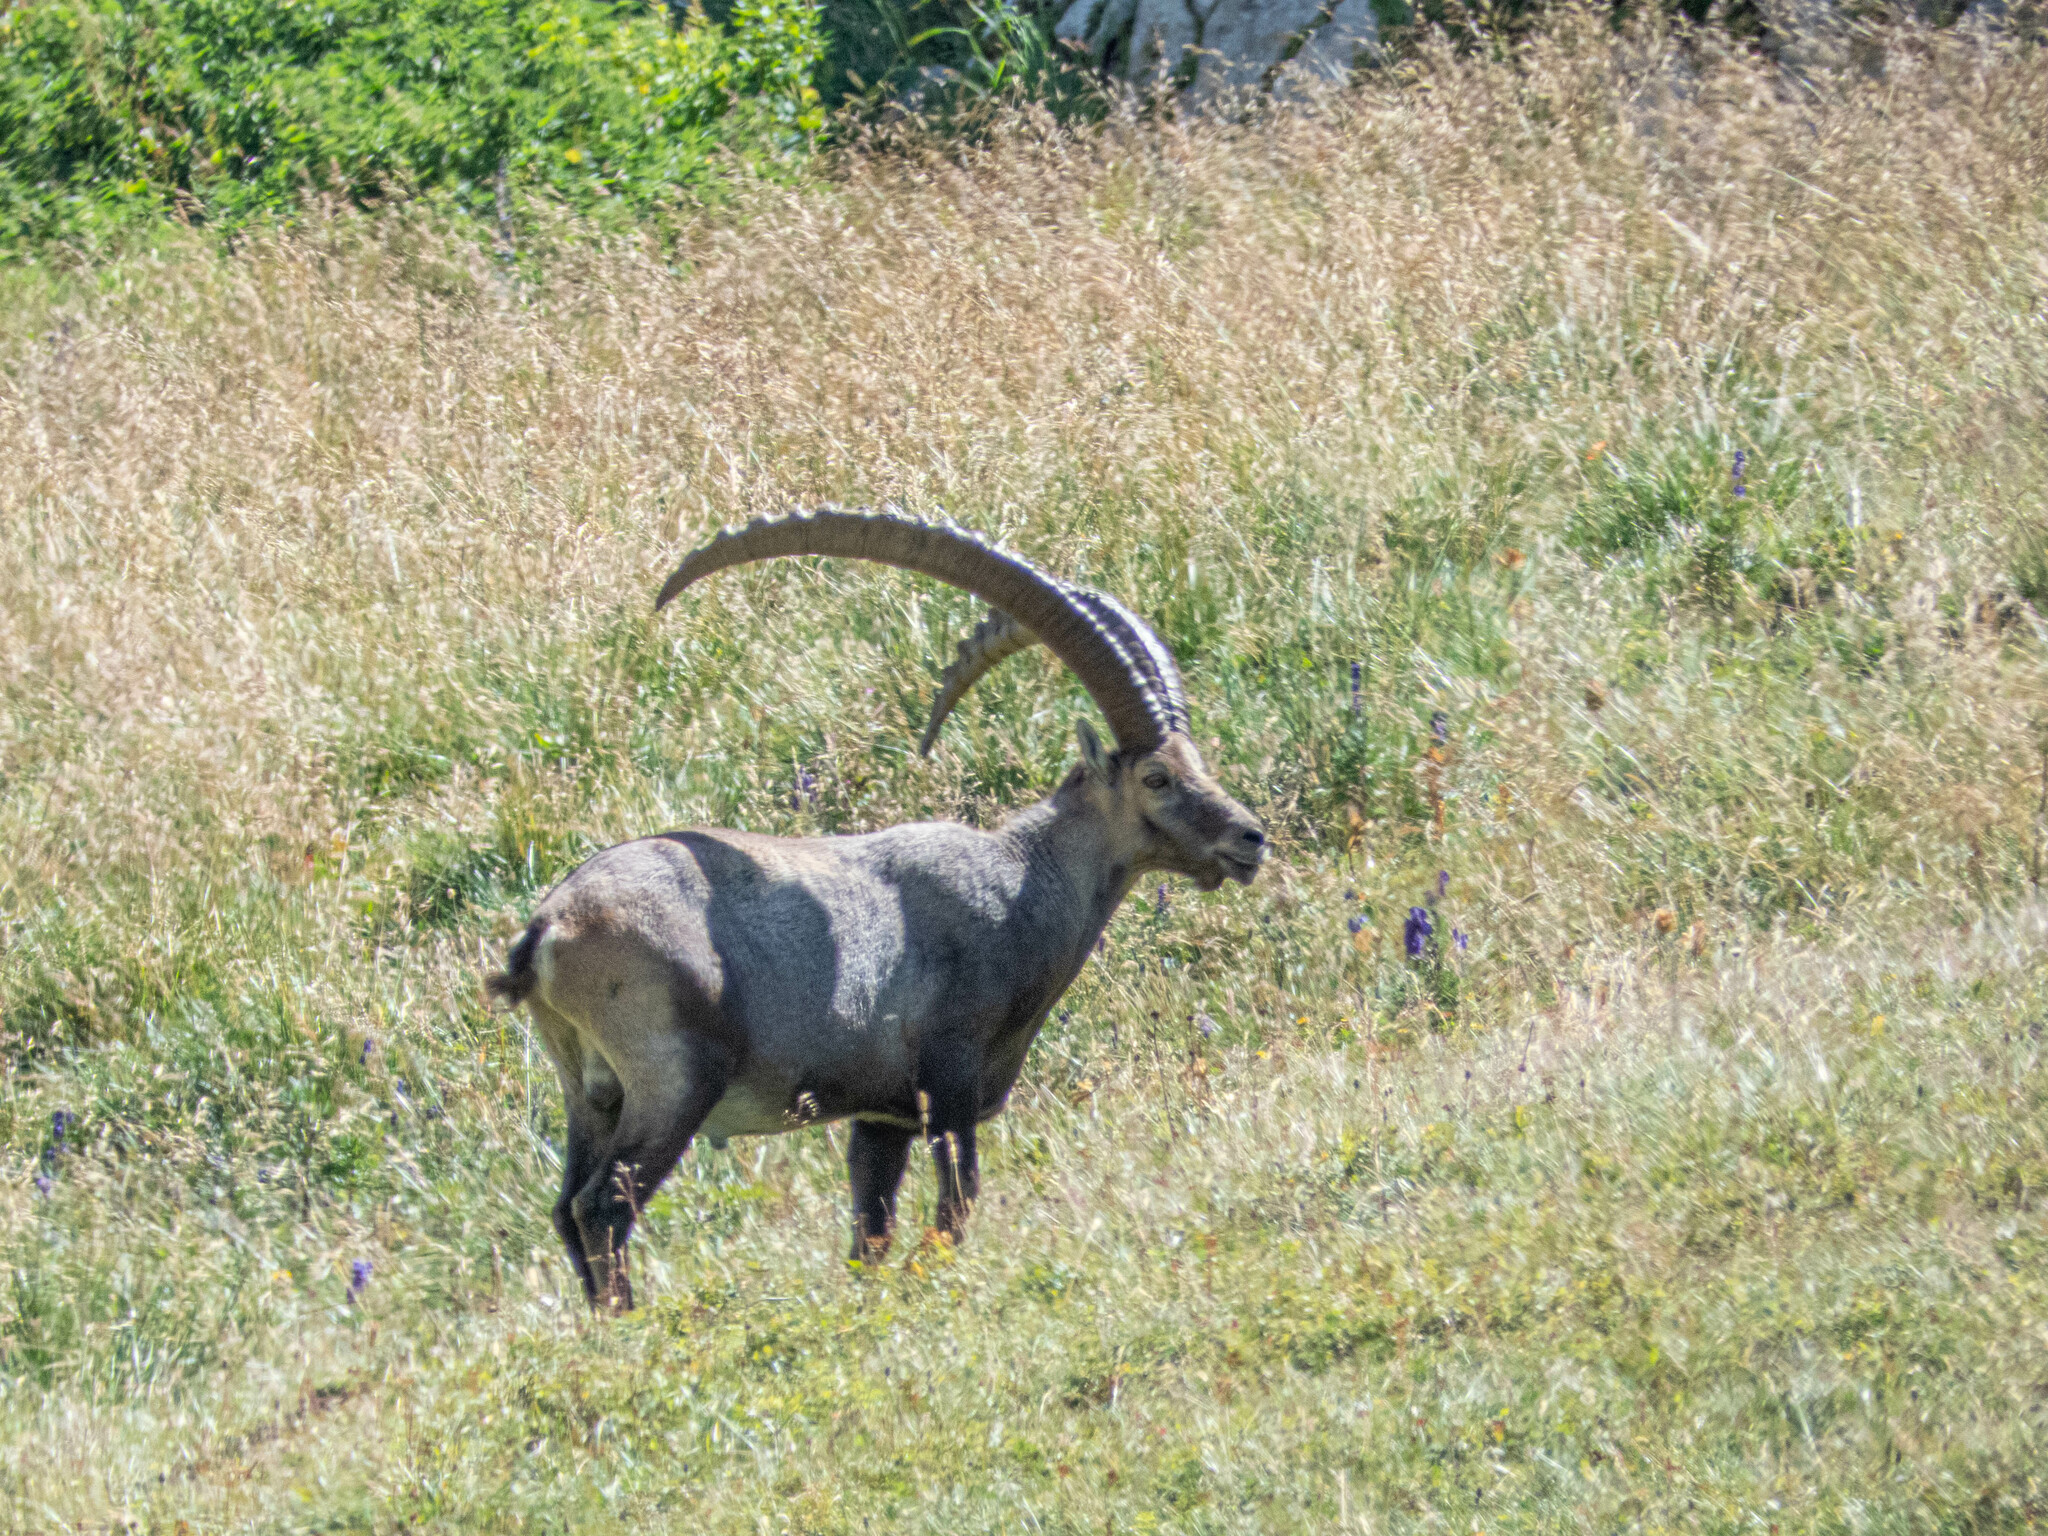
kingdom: Animalia
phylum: Chordata
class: Mammalia
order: Artiodactyla
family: Bovidae
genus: Capra
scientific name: Capra ibex
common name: Alpine ibex
